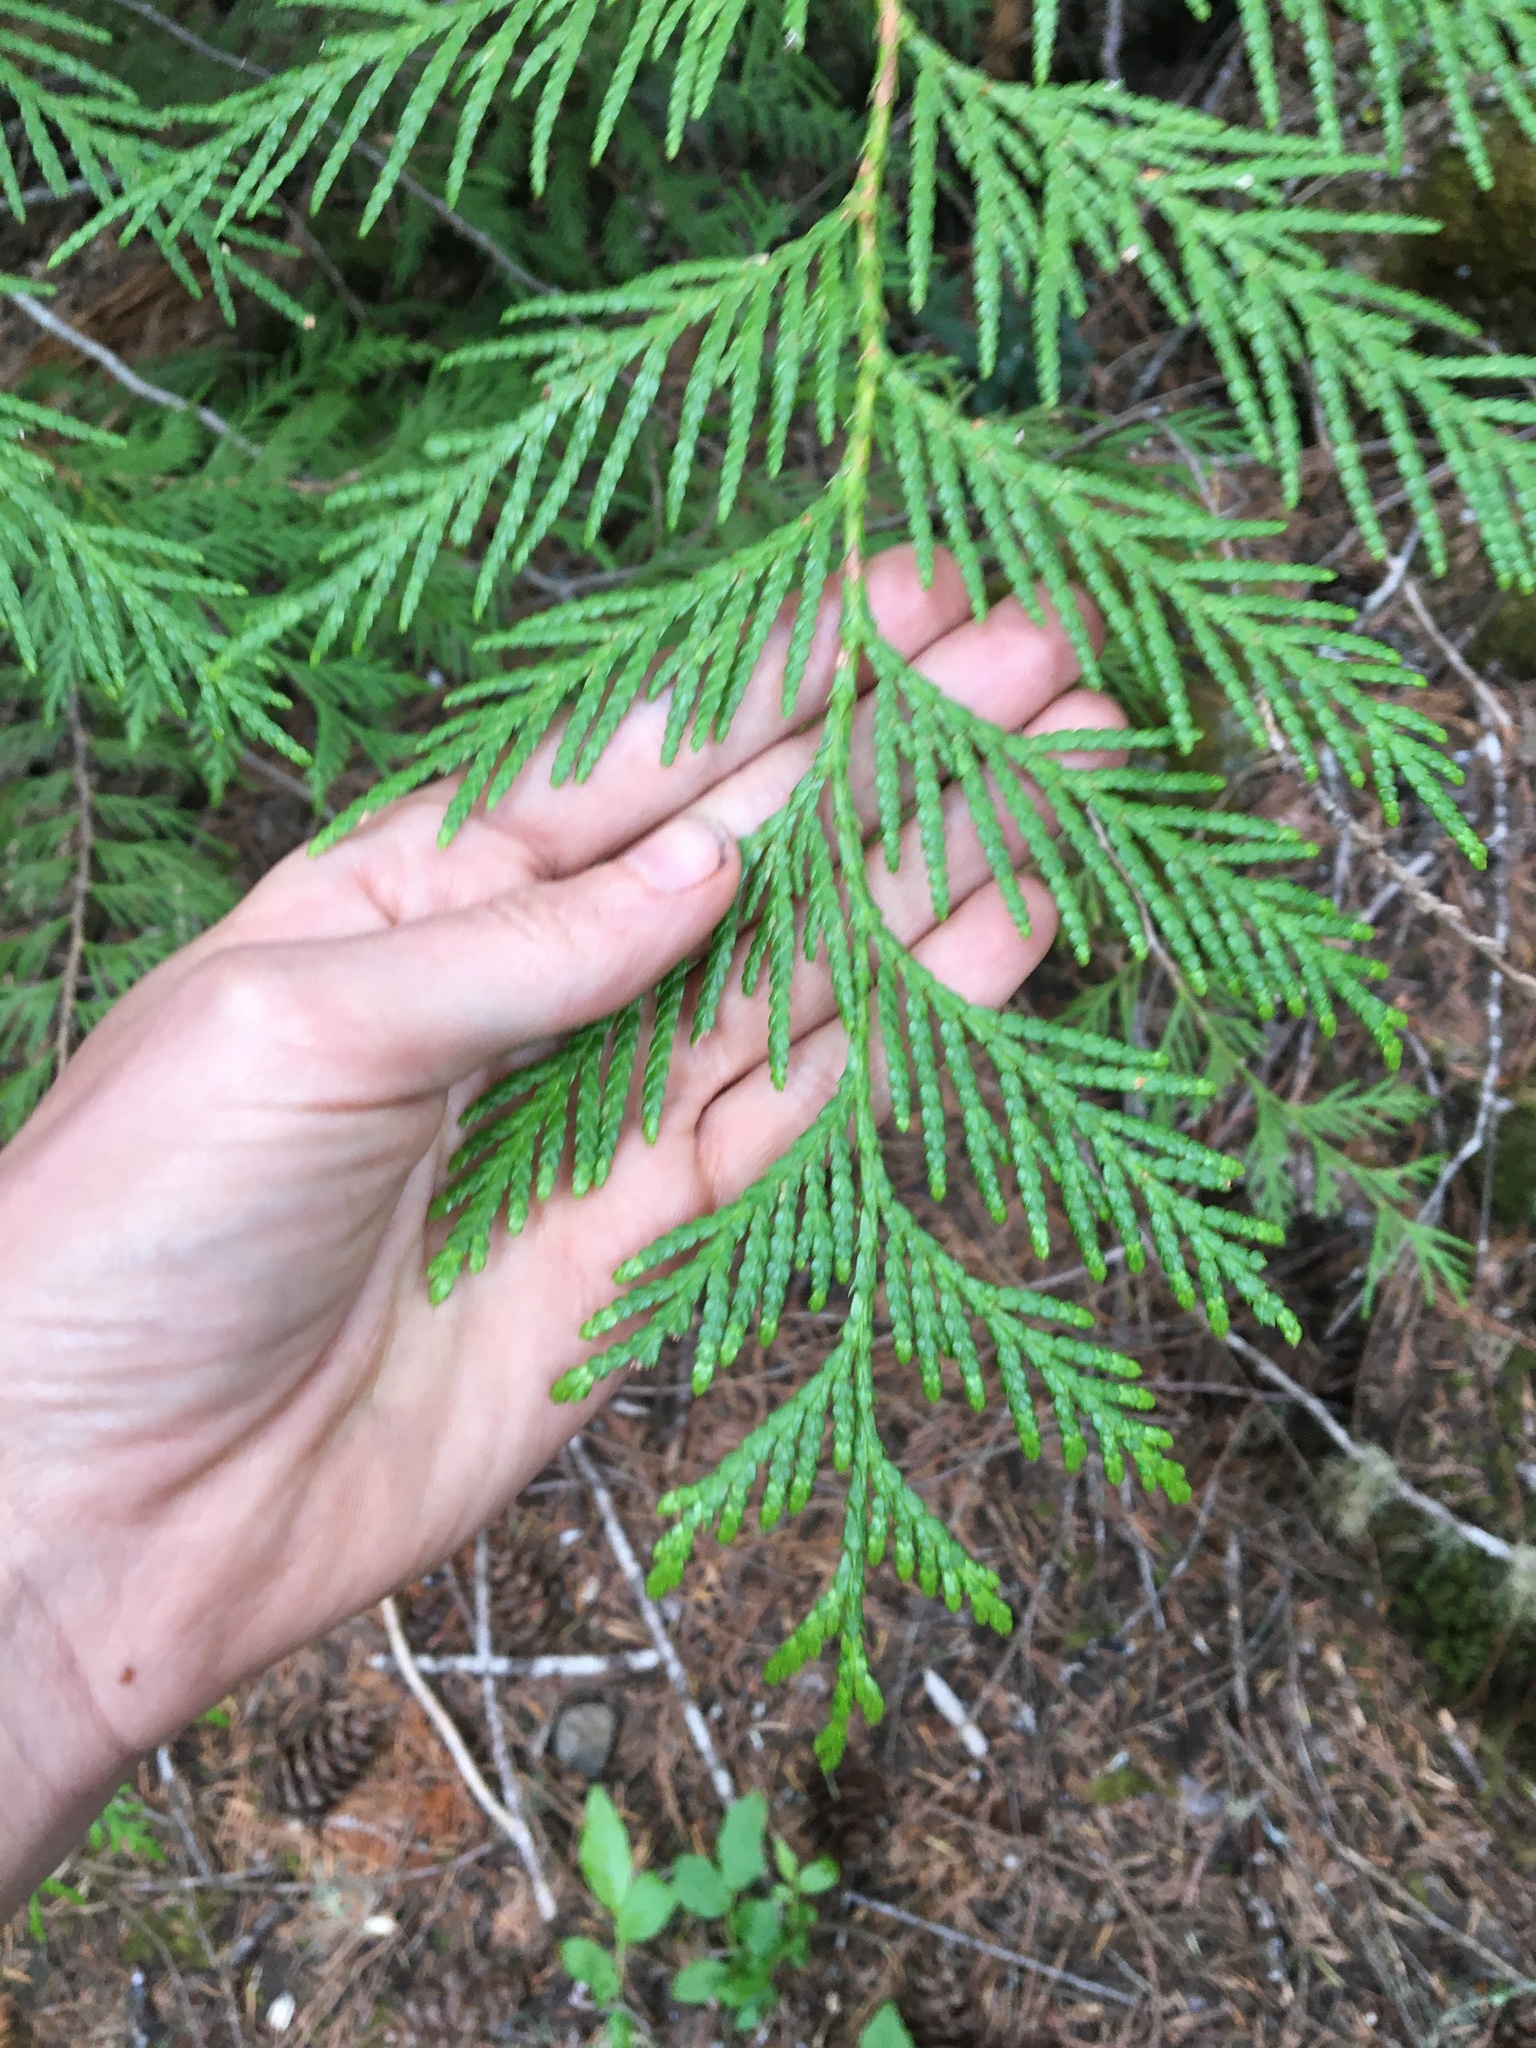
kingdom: Plantae
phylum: Tracheophyta
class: Pinopsida
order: Pinales
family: Cupressaceae
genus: Thuja
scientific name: Thuja plicata
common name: Western red-cedar
